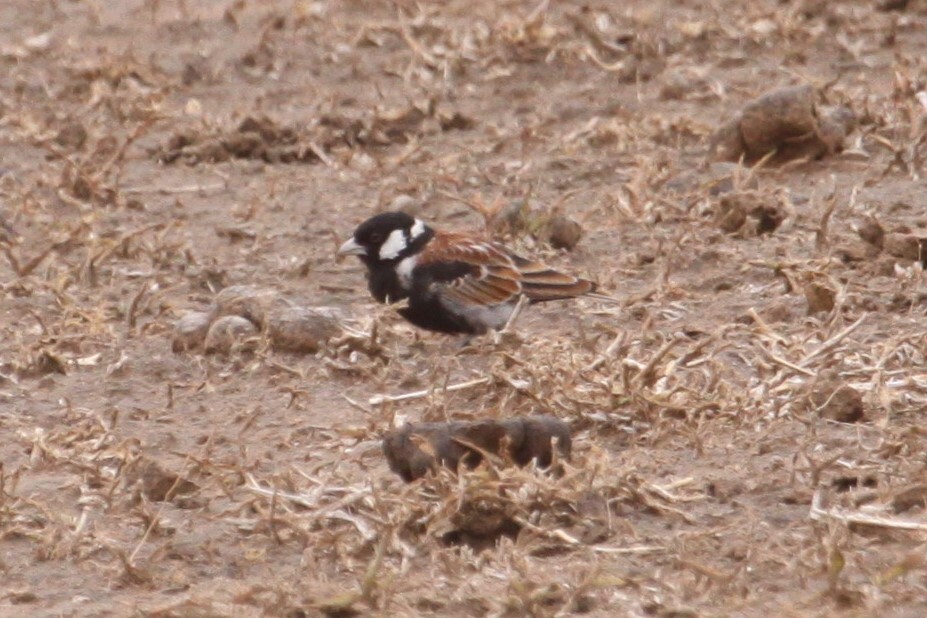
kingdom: Animalia
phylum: Chordata
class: Aves
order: Passeriformes
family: Alaudidae
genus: Eremopterix
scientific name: Eremopterix leucotis
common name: Chestnut-backed sparrow-lark
